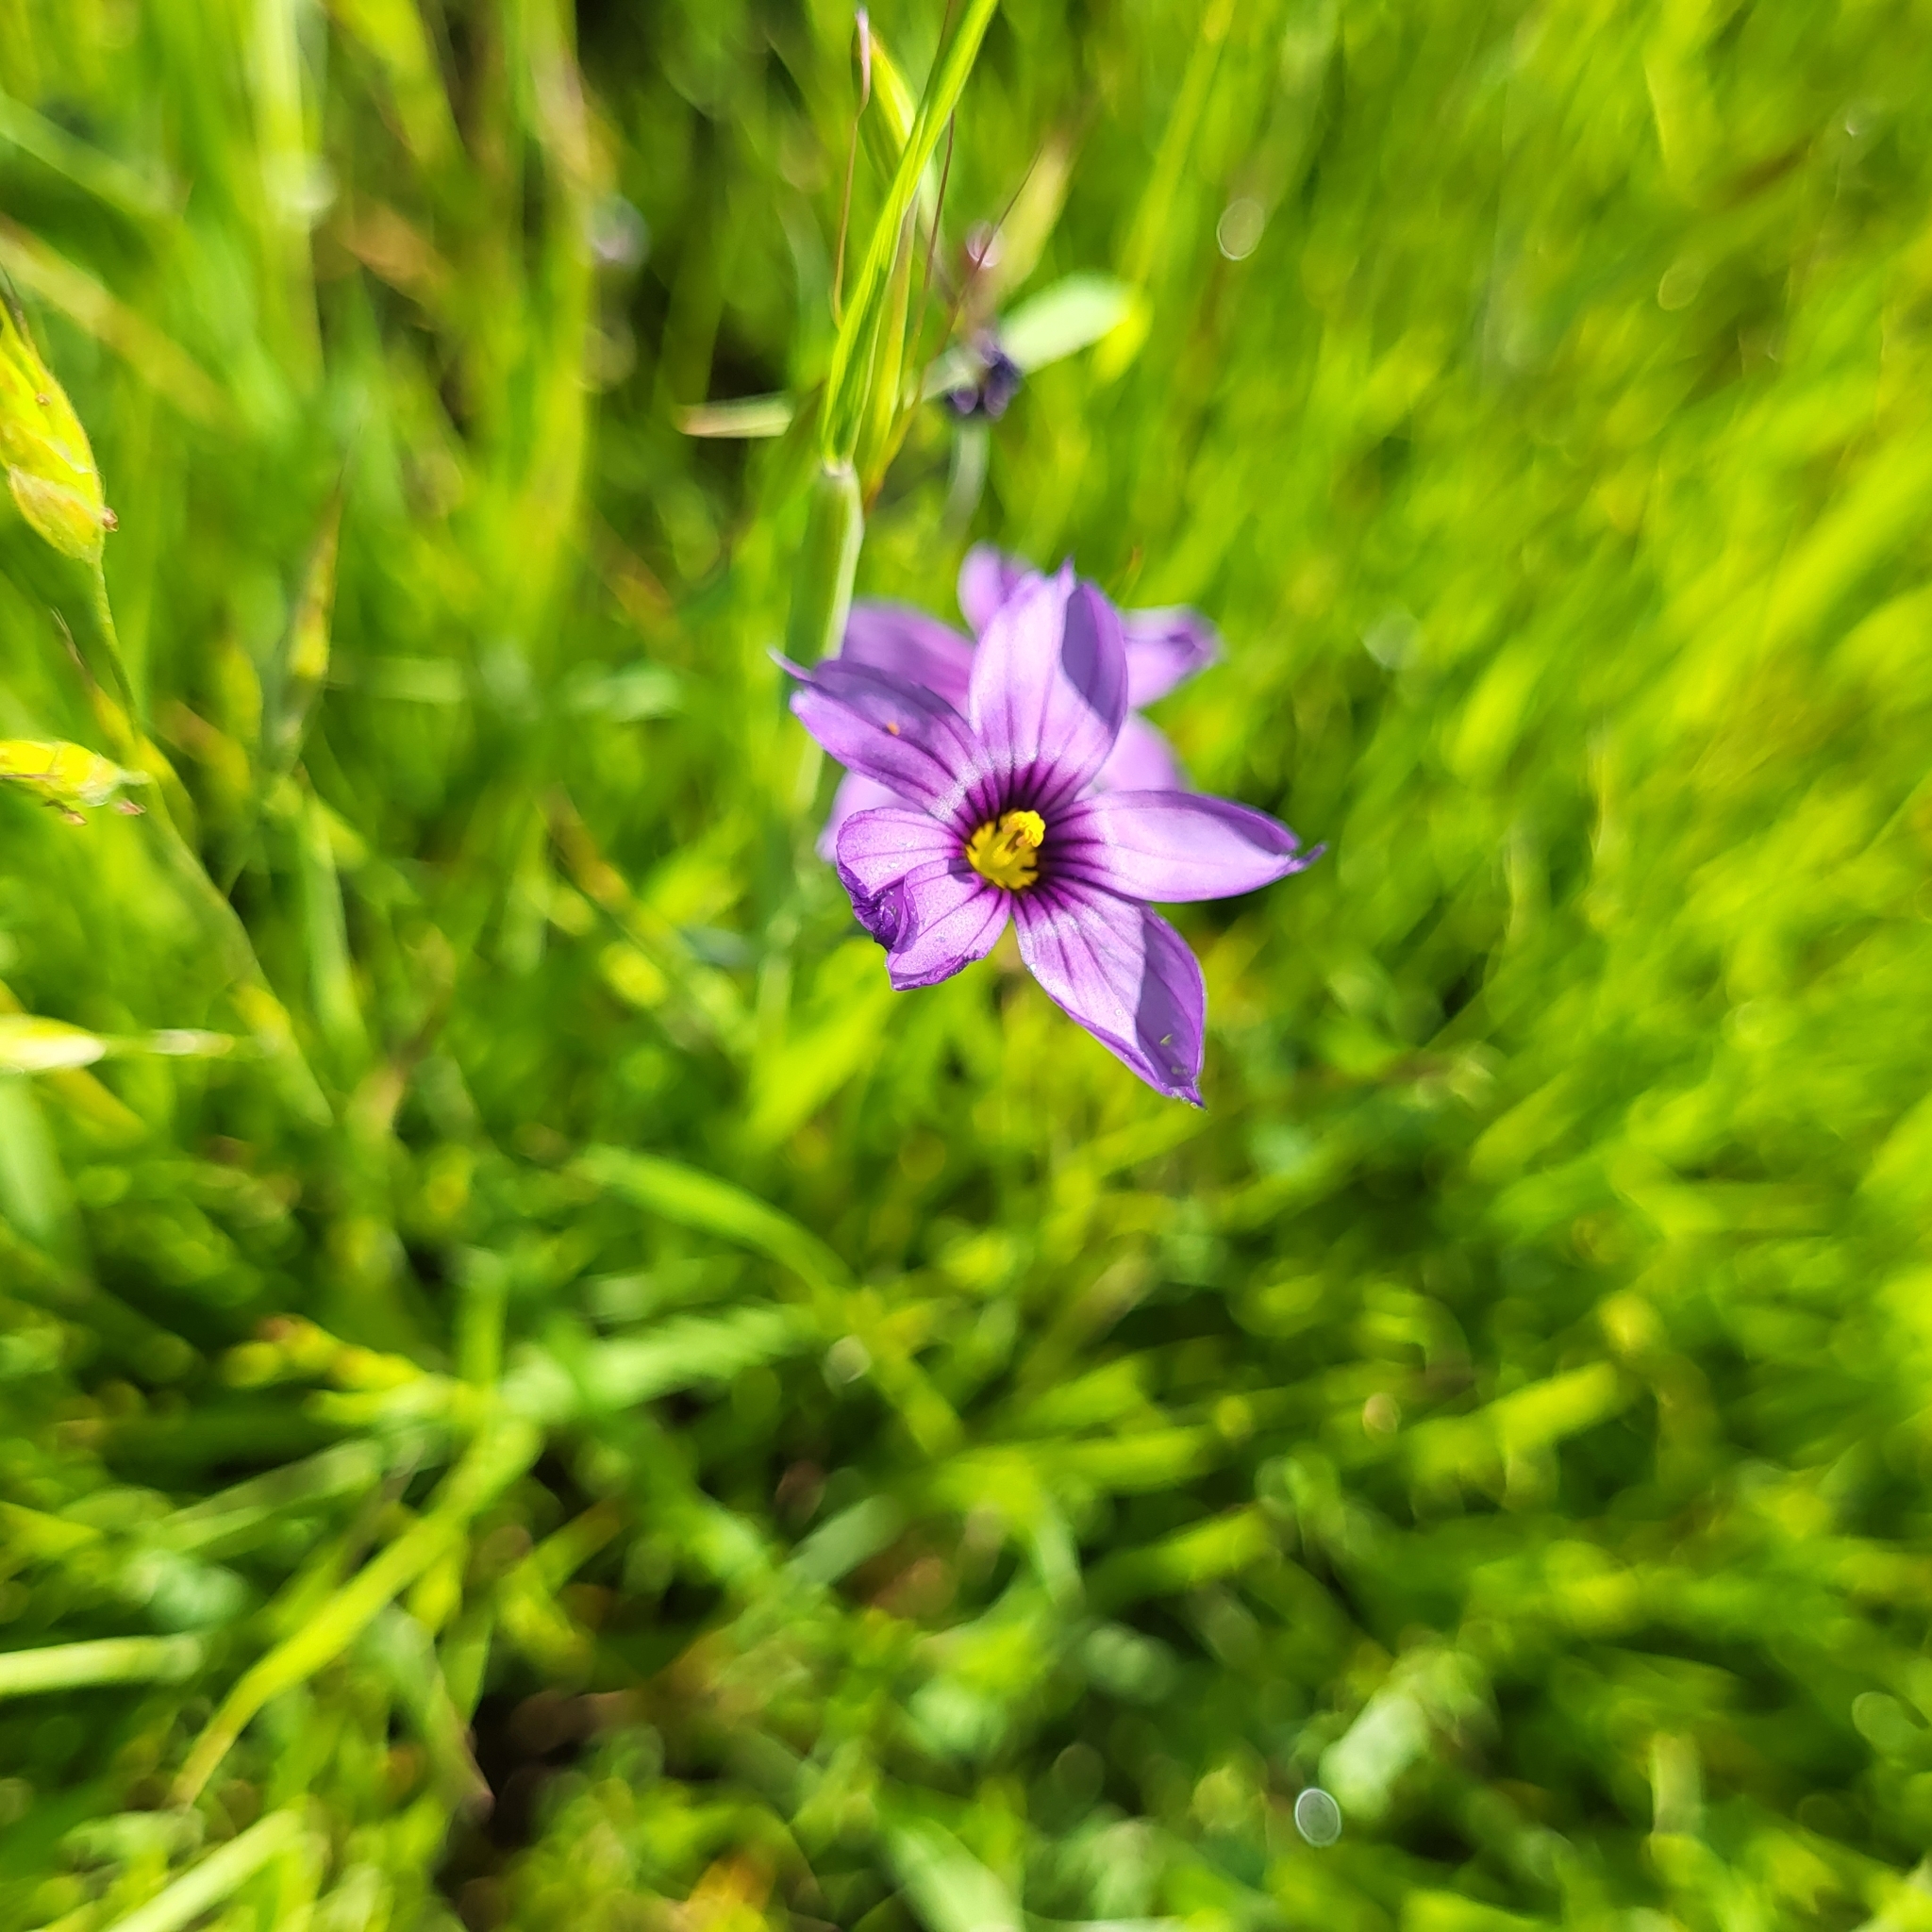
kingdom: Plantae
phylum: Tracheophyta
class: Liliopsida
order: Asparagales
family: Iridaceae
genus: Sisyrinchium
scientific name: Sisyrinchium bellum
